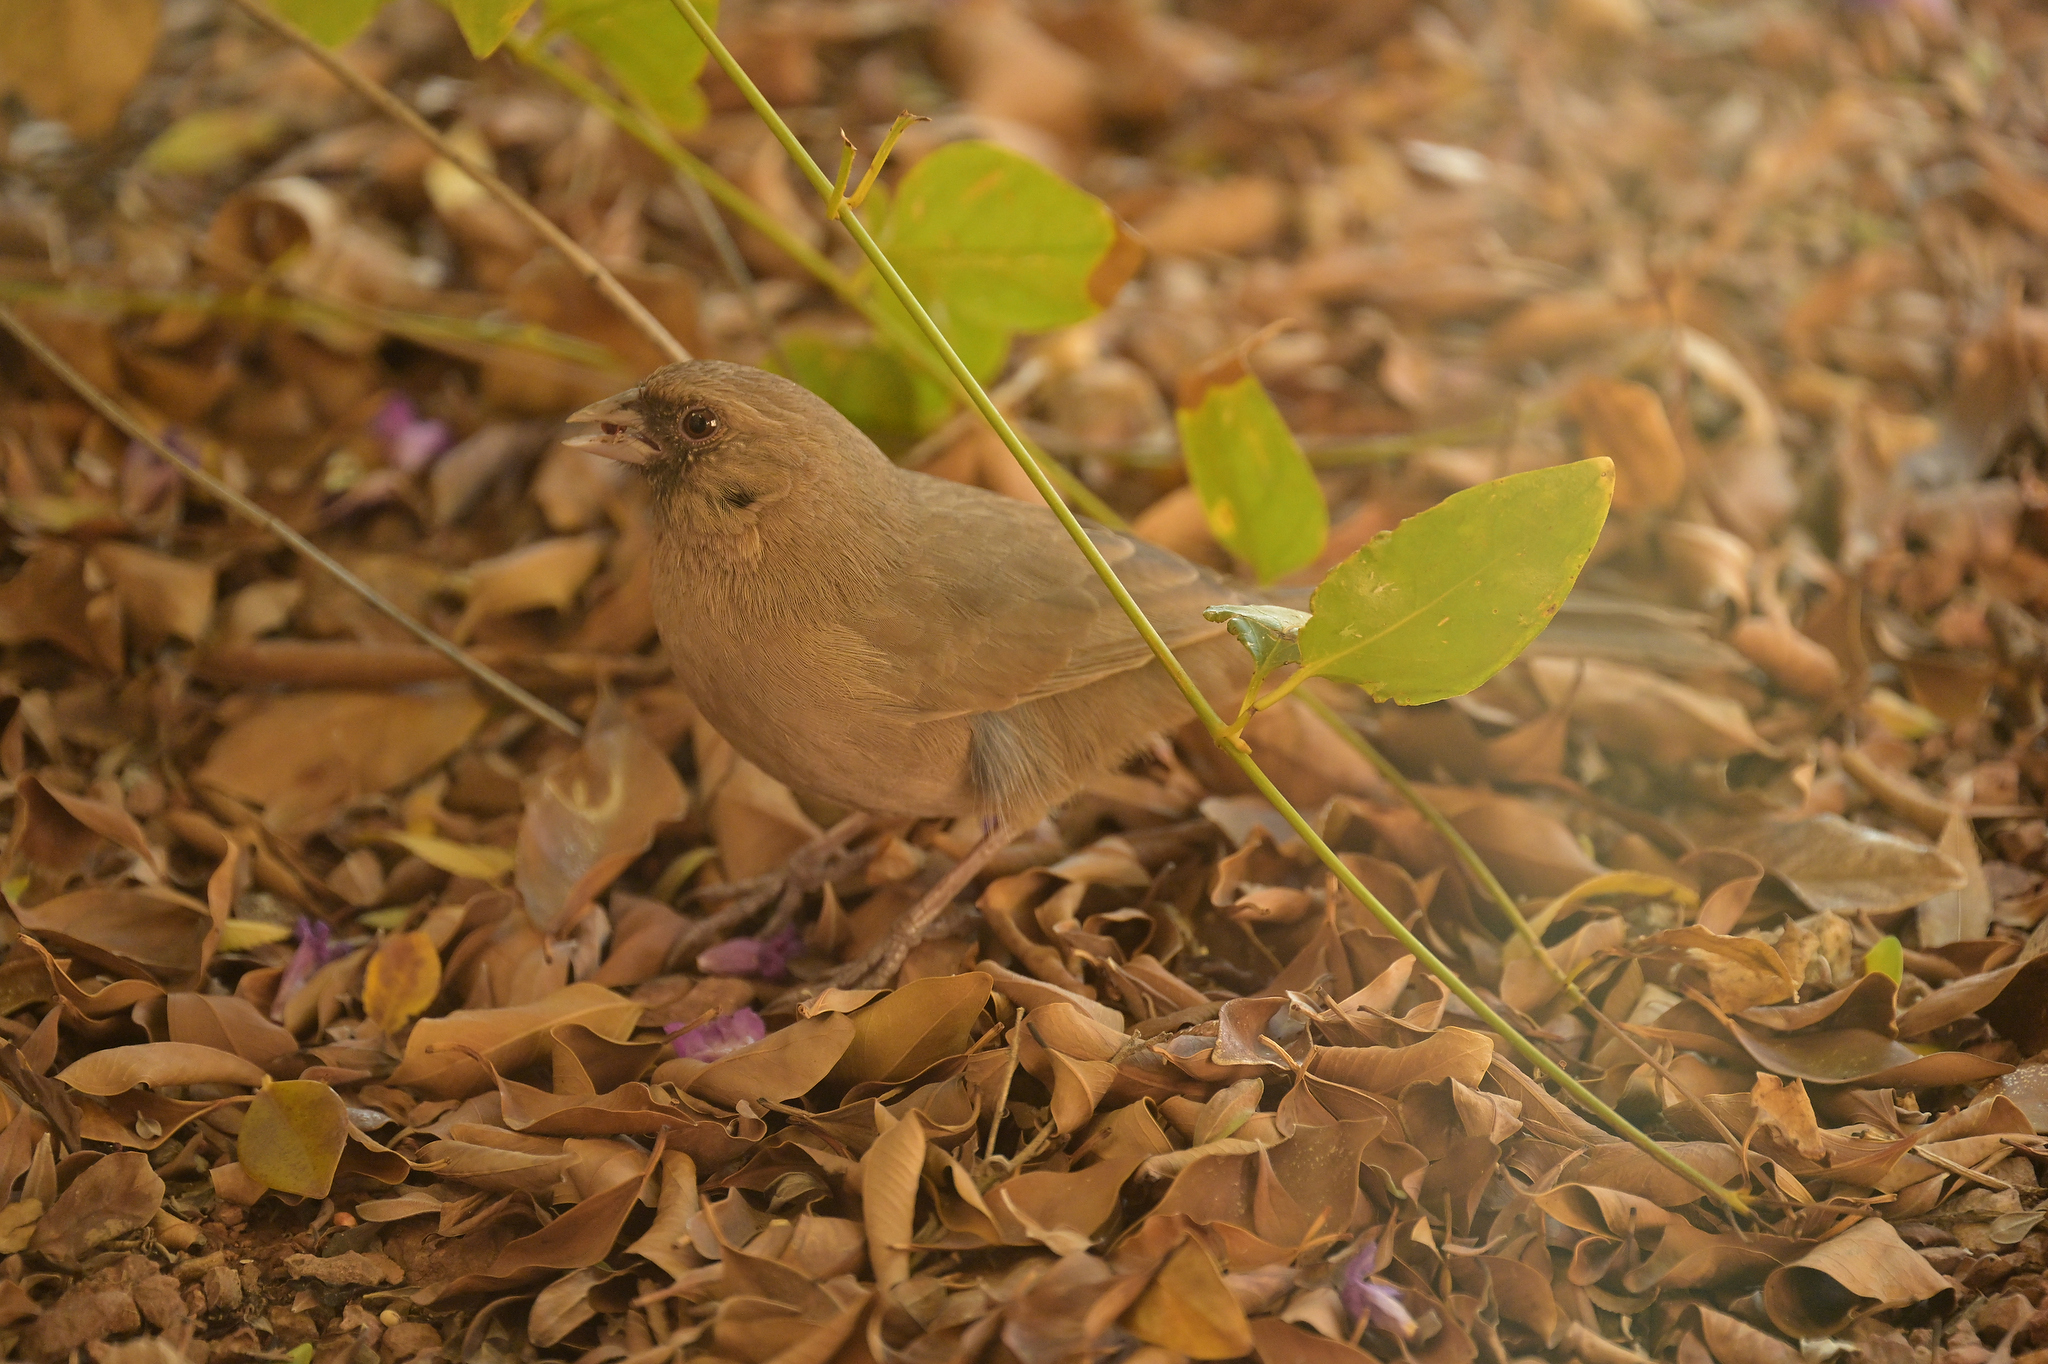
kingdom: Animalia
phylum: Chordata
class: Aves
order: Passeriformes
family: Passerellidae
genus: Melozone
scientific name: Melozone aberti
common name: Abert's towhee
